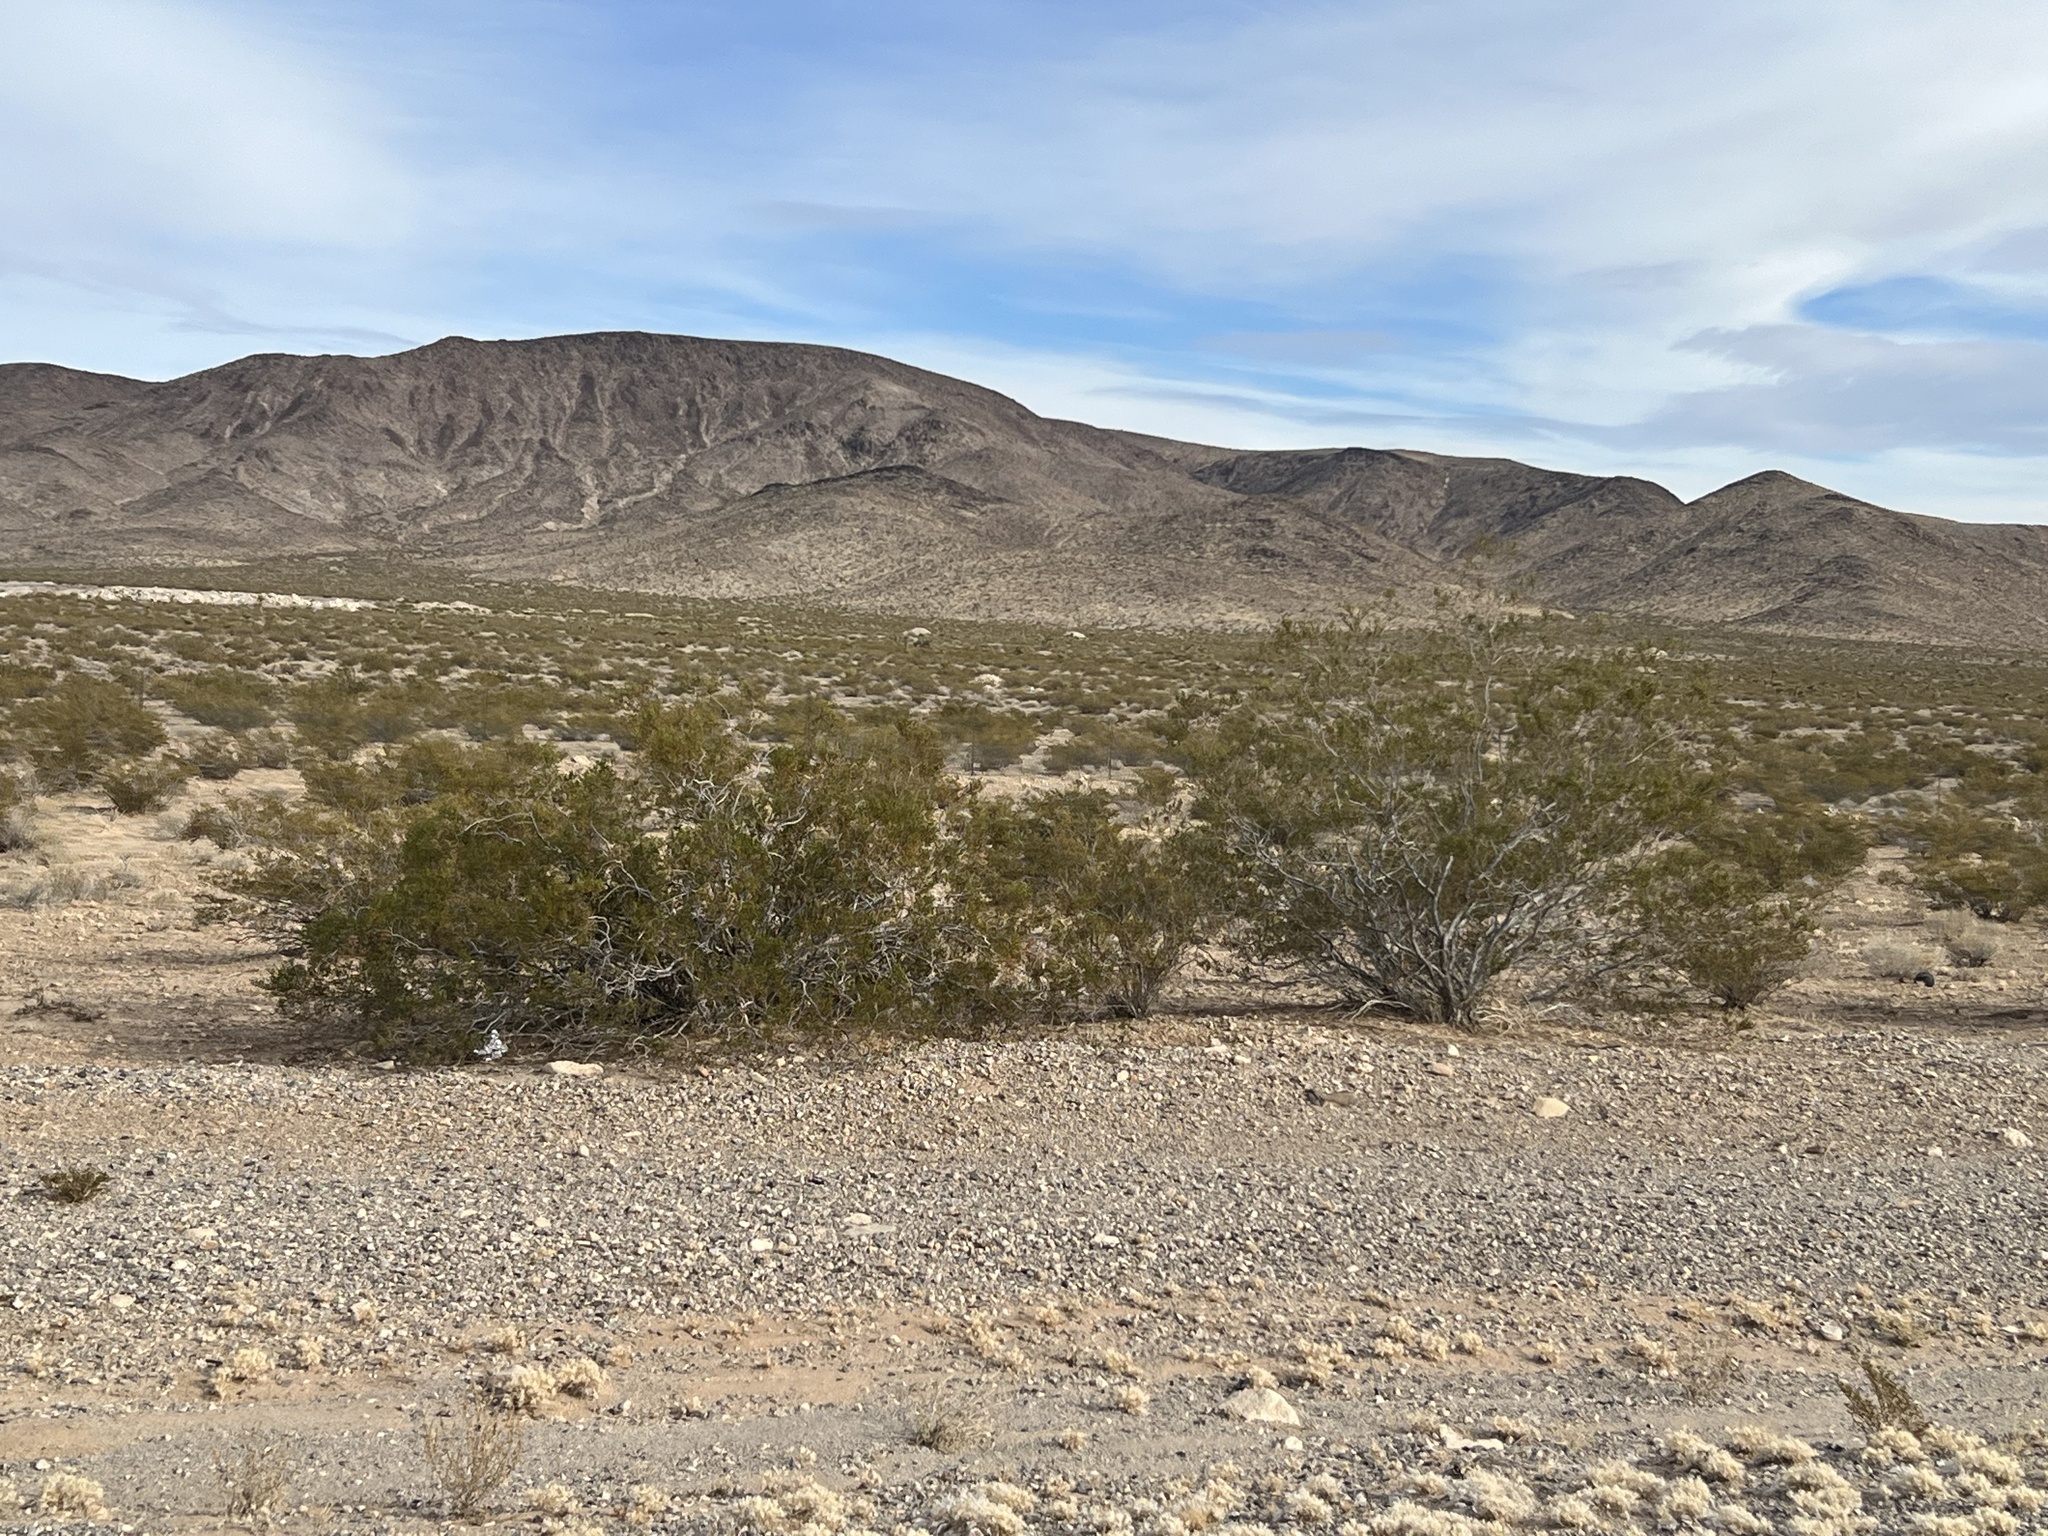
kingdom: Plantae
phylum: Tracheophyta
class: Magnoliopsida
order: Zygophyllales
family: Zygophyllaceae
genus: Larrea
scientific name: Larrea tridentata
